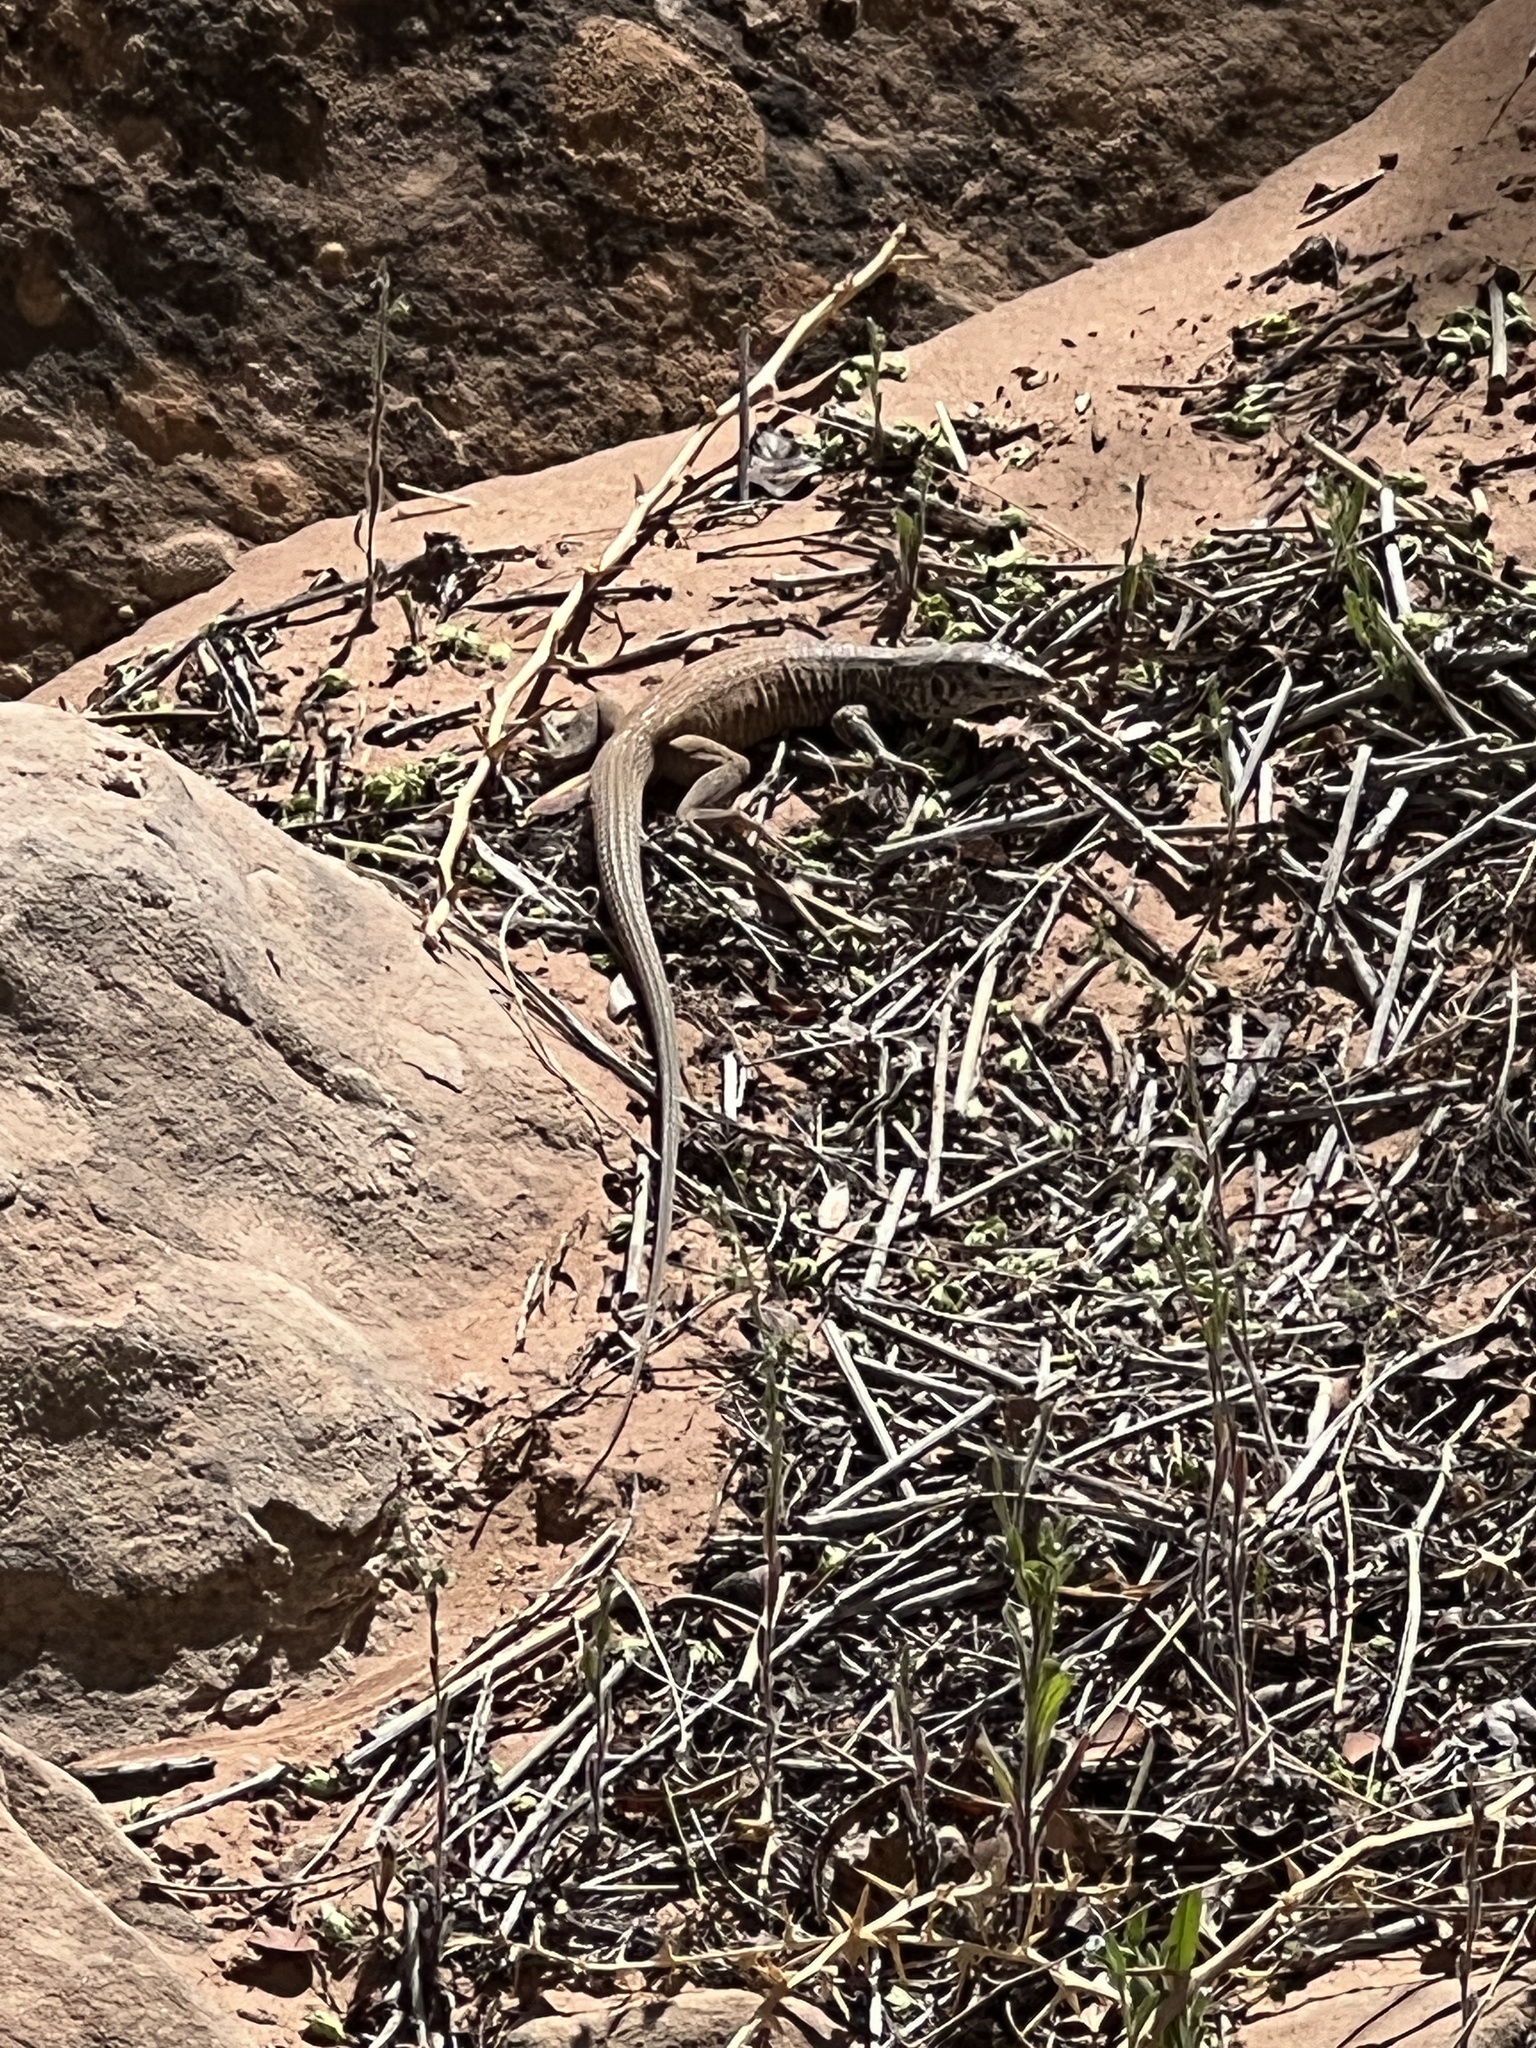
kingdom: Animalia
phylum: Chordata
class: Squamata
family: Teiidae
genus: Aspidoscelis
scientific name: Aspidoscelis tigris
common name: Tiger whiptail
